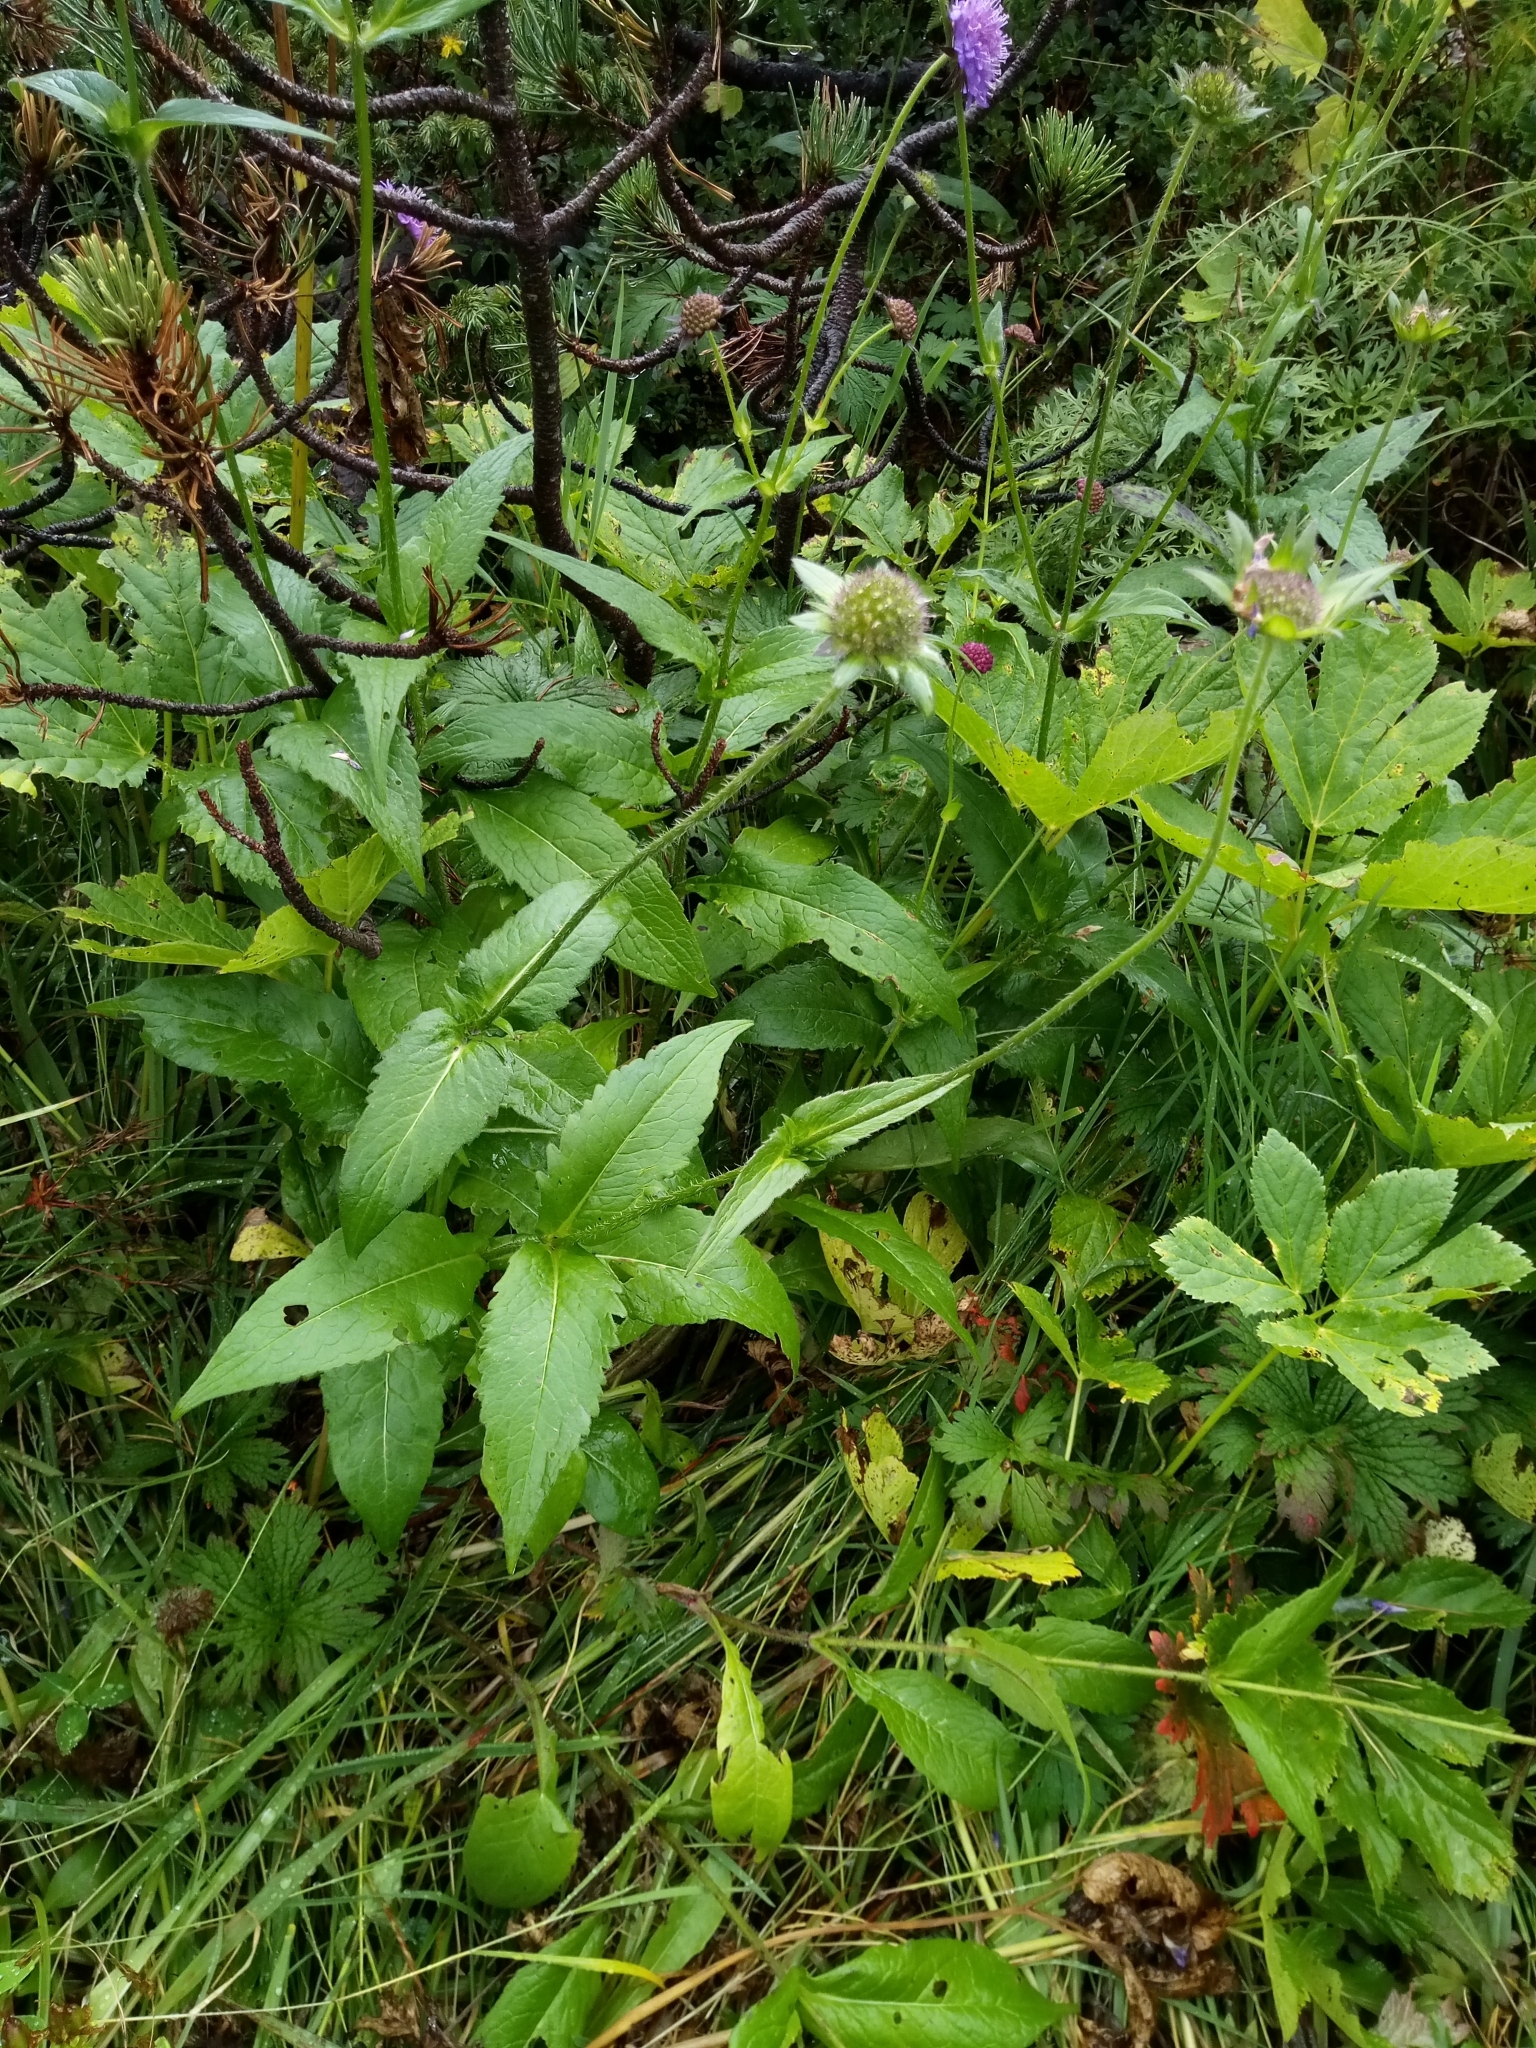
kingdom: Plantae
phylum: Tracheophyta
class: Magnoliopsida
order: Dipsacales
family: Caprifoliaceae
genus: Knautia
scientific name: Knautia dipsacifolia
